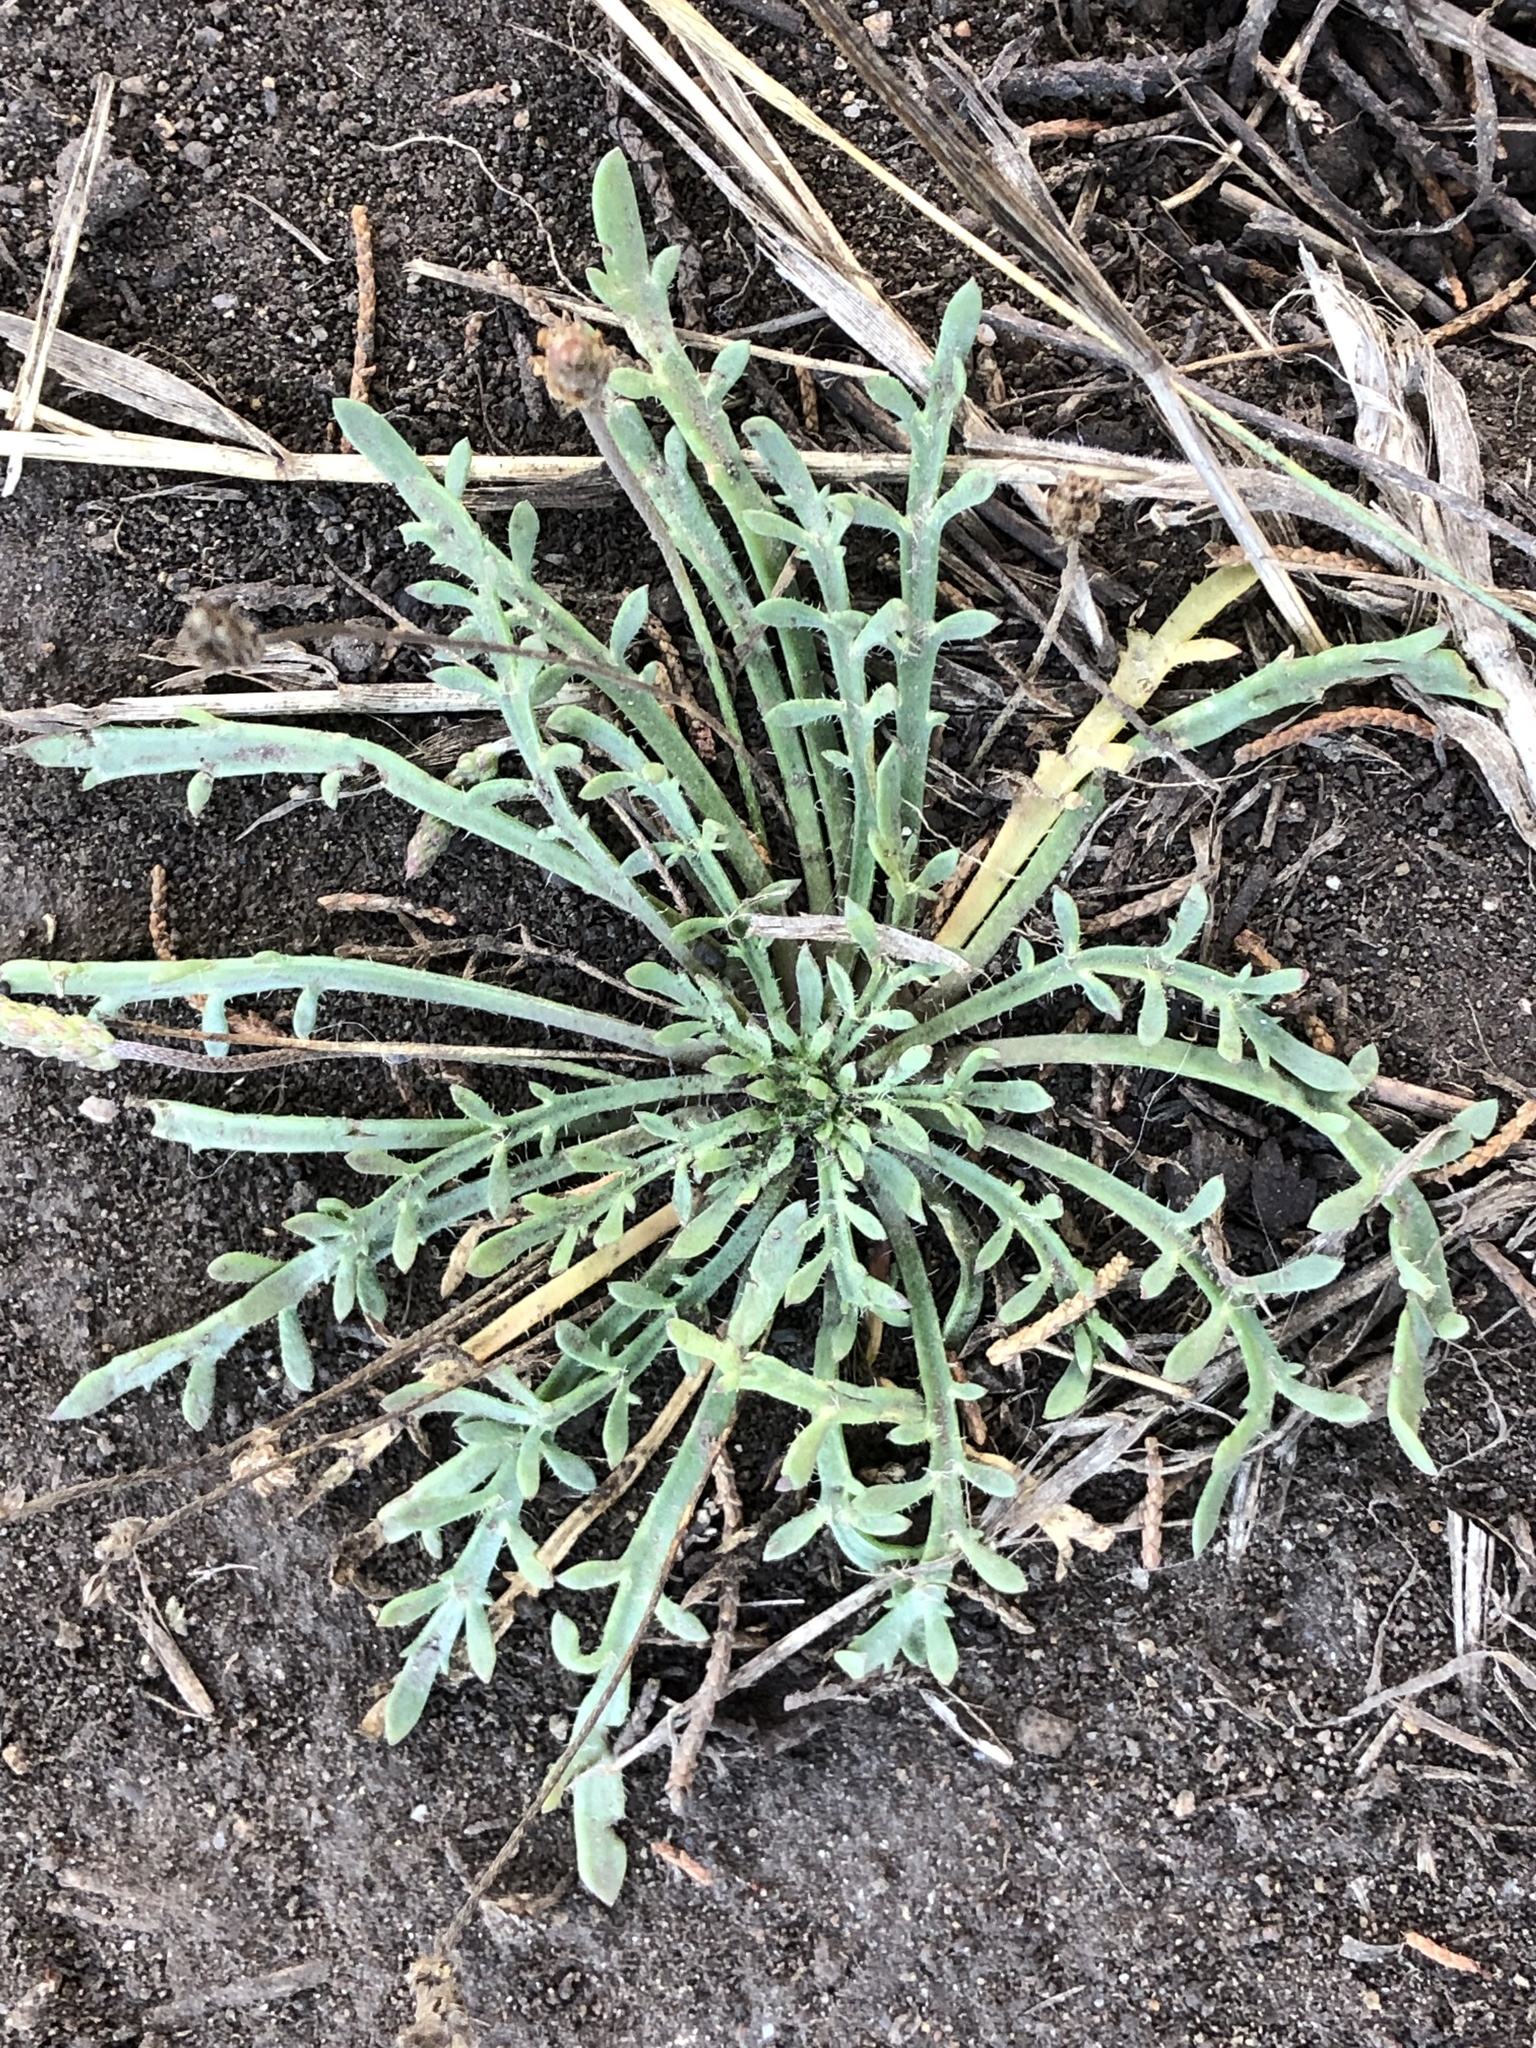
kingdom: Plantae
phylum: Tracheophyta
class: Magnoliopsida
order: Lamiales
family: Plantaginaceae
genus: Plantago
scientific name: Plantago coronopus
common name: Buck's-horn plantain
